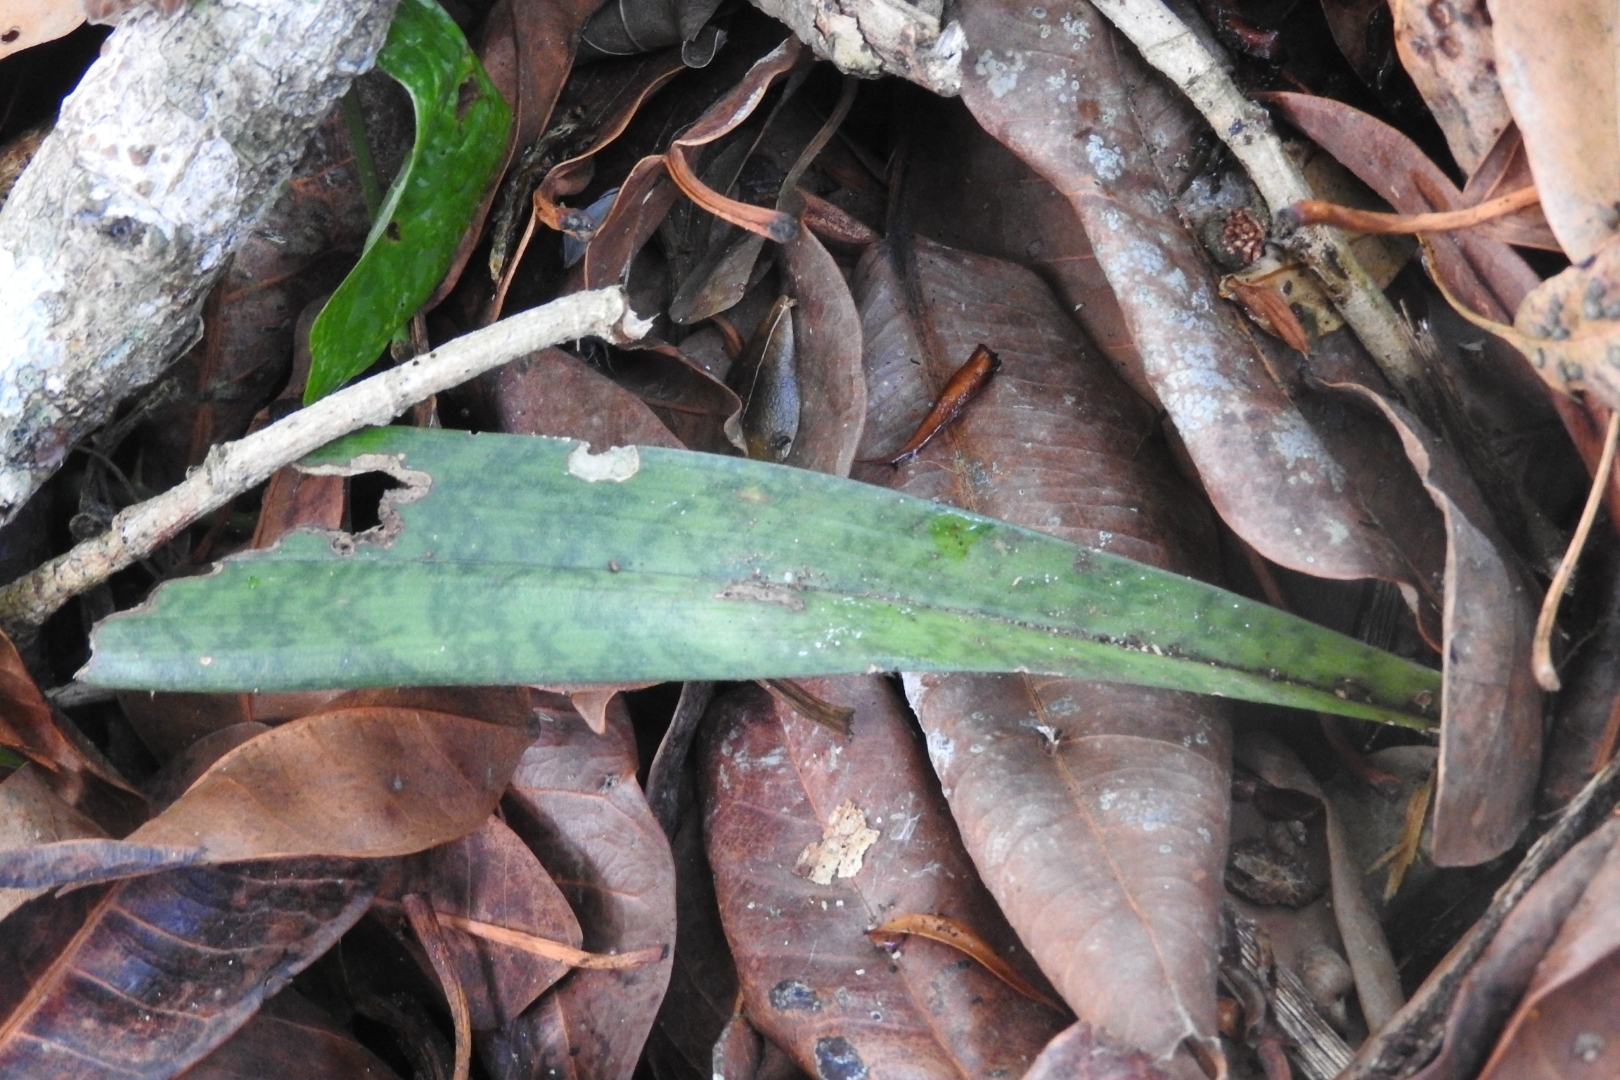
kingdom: Plantae
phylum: Tracheophyta
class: Liliopsida
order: Asparagales
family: Asparagaceae
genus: Dracaena
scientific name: Dracaena hyacinthoides
